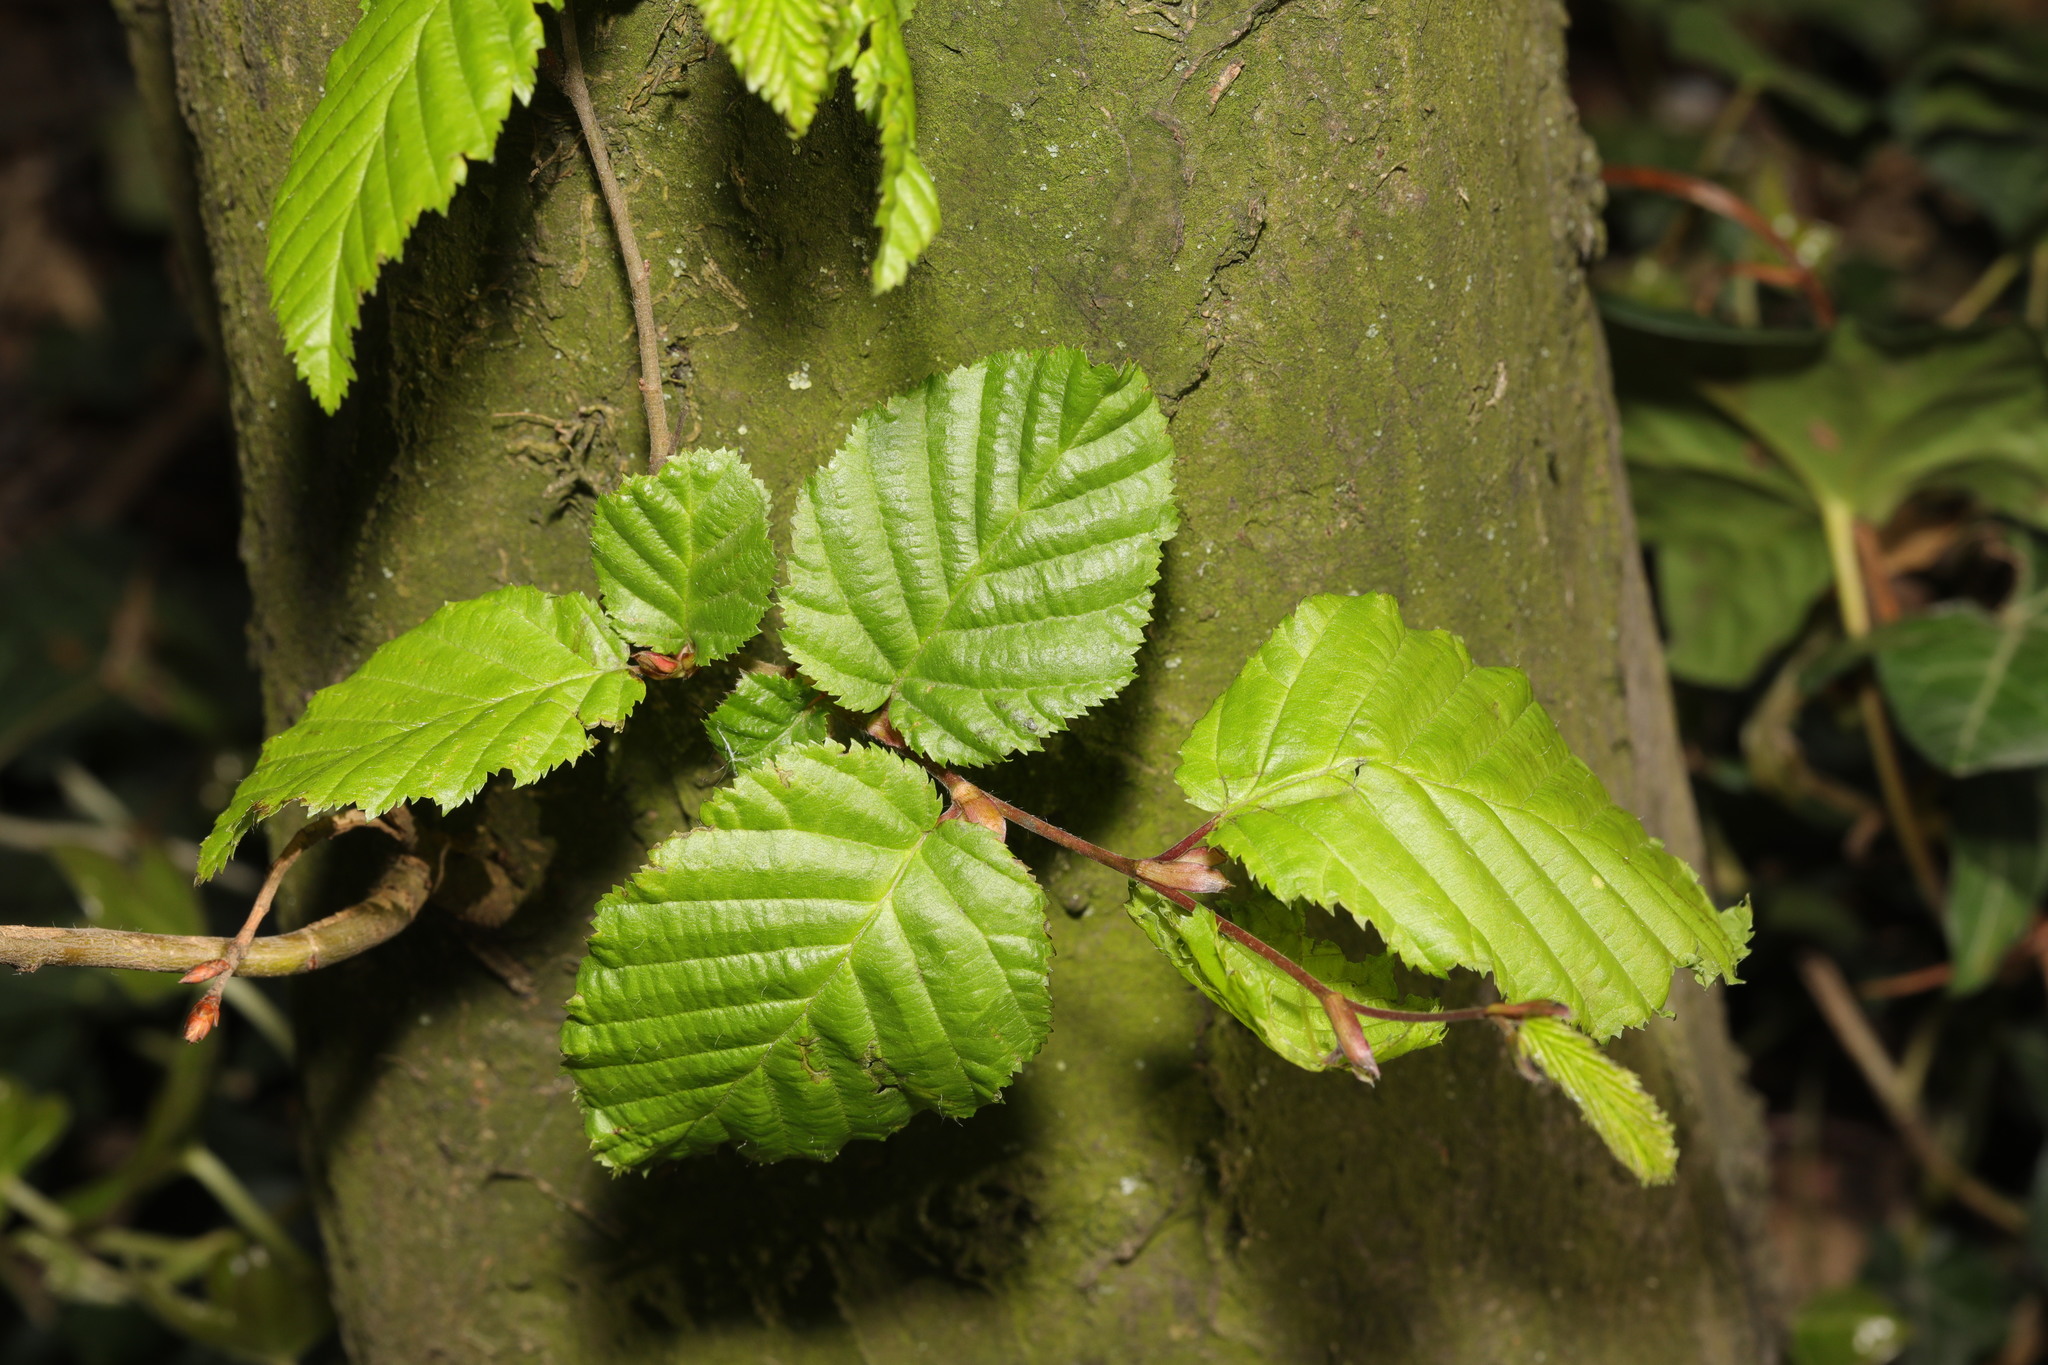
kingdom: Plantae
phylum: Tracheophyta
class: Magnoliopsida
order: Fagales
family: Betulaceae
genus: Carpinus
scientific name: Carpinus betulus
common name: Hornbeam
